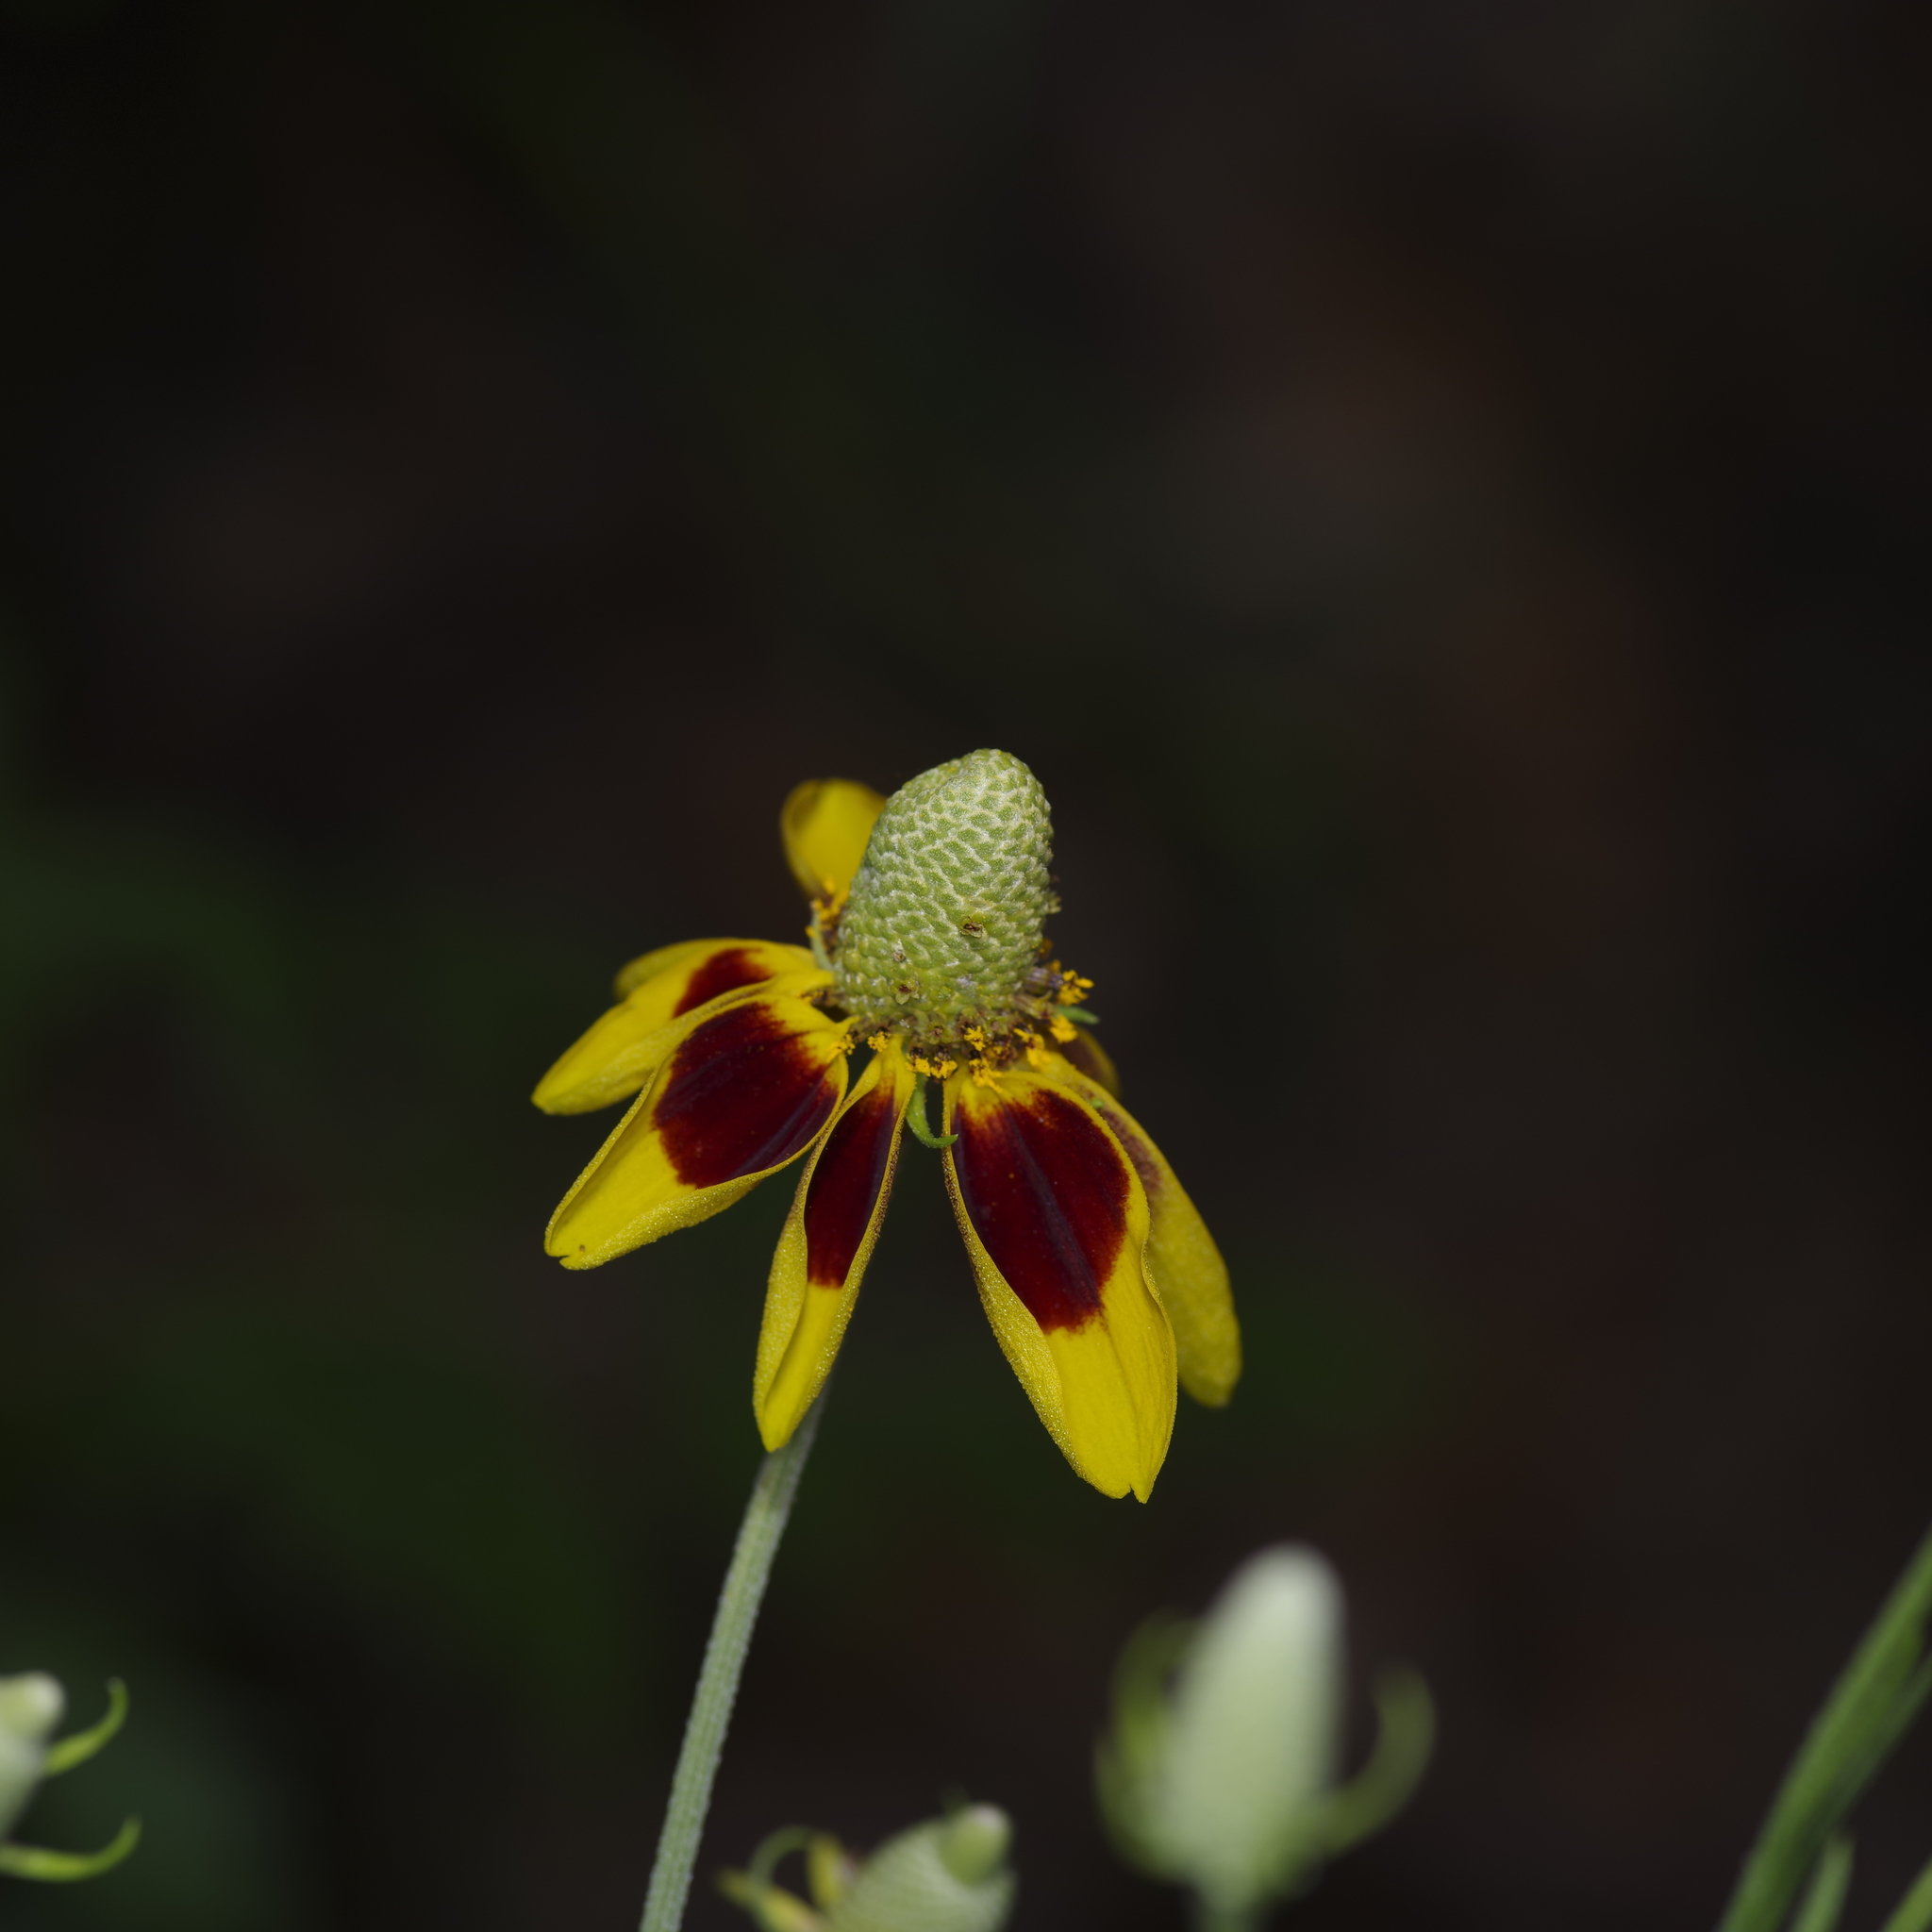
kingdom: Plantae
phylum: Tracheophyta
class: Magnoliopsida
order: Asterales
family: Asteraceae
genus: Ratibida
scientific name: Ratibida columnifera
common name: Prairie coneflower
